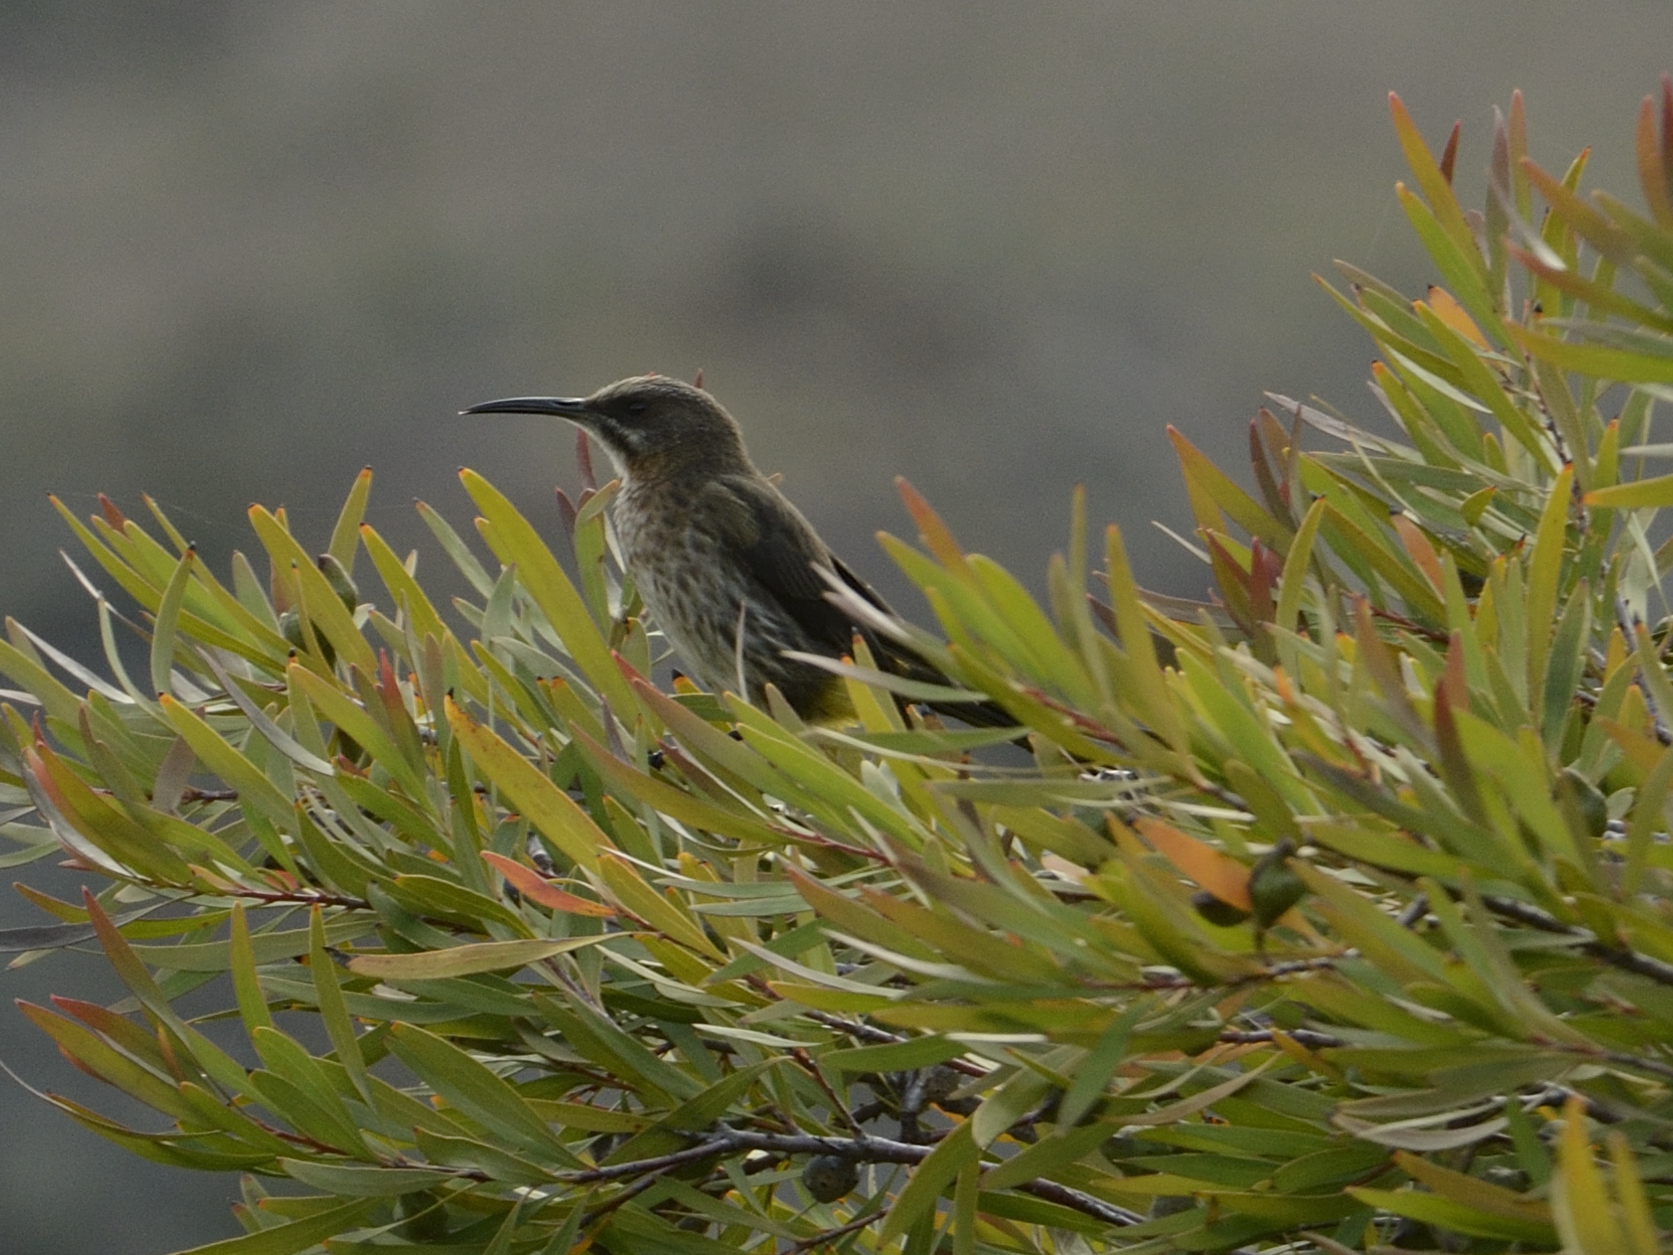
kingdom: Animalia
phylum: Chordata
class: Aves
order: Passeriformes
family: Promeropidae
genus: Promerops
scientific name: Promerops cafer
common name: Cape sugarbird
